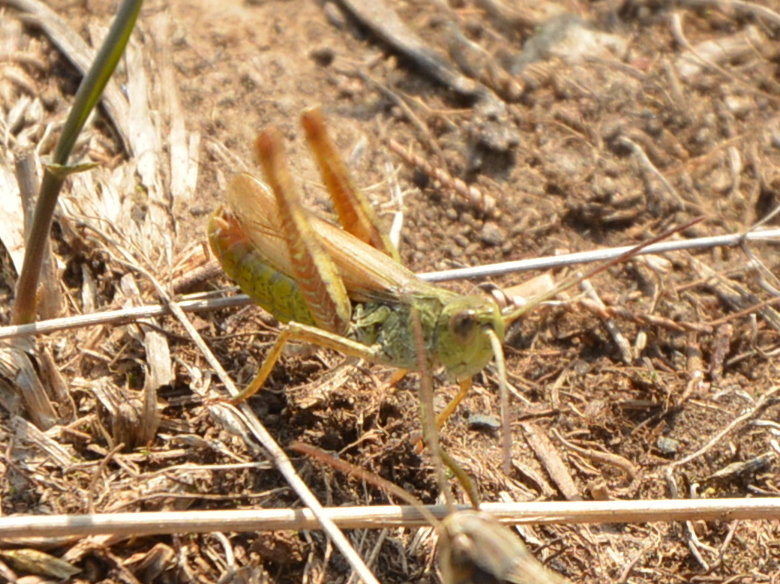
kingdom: Animalia
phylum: Arthropoda
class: Insecta
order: Orthoptera
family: Acrididae
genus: Chorthippus
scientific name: Chorthippus apricarius
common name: Upland field grasshopper
